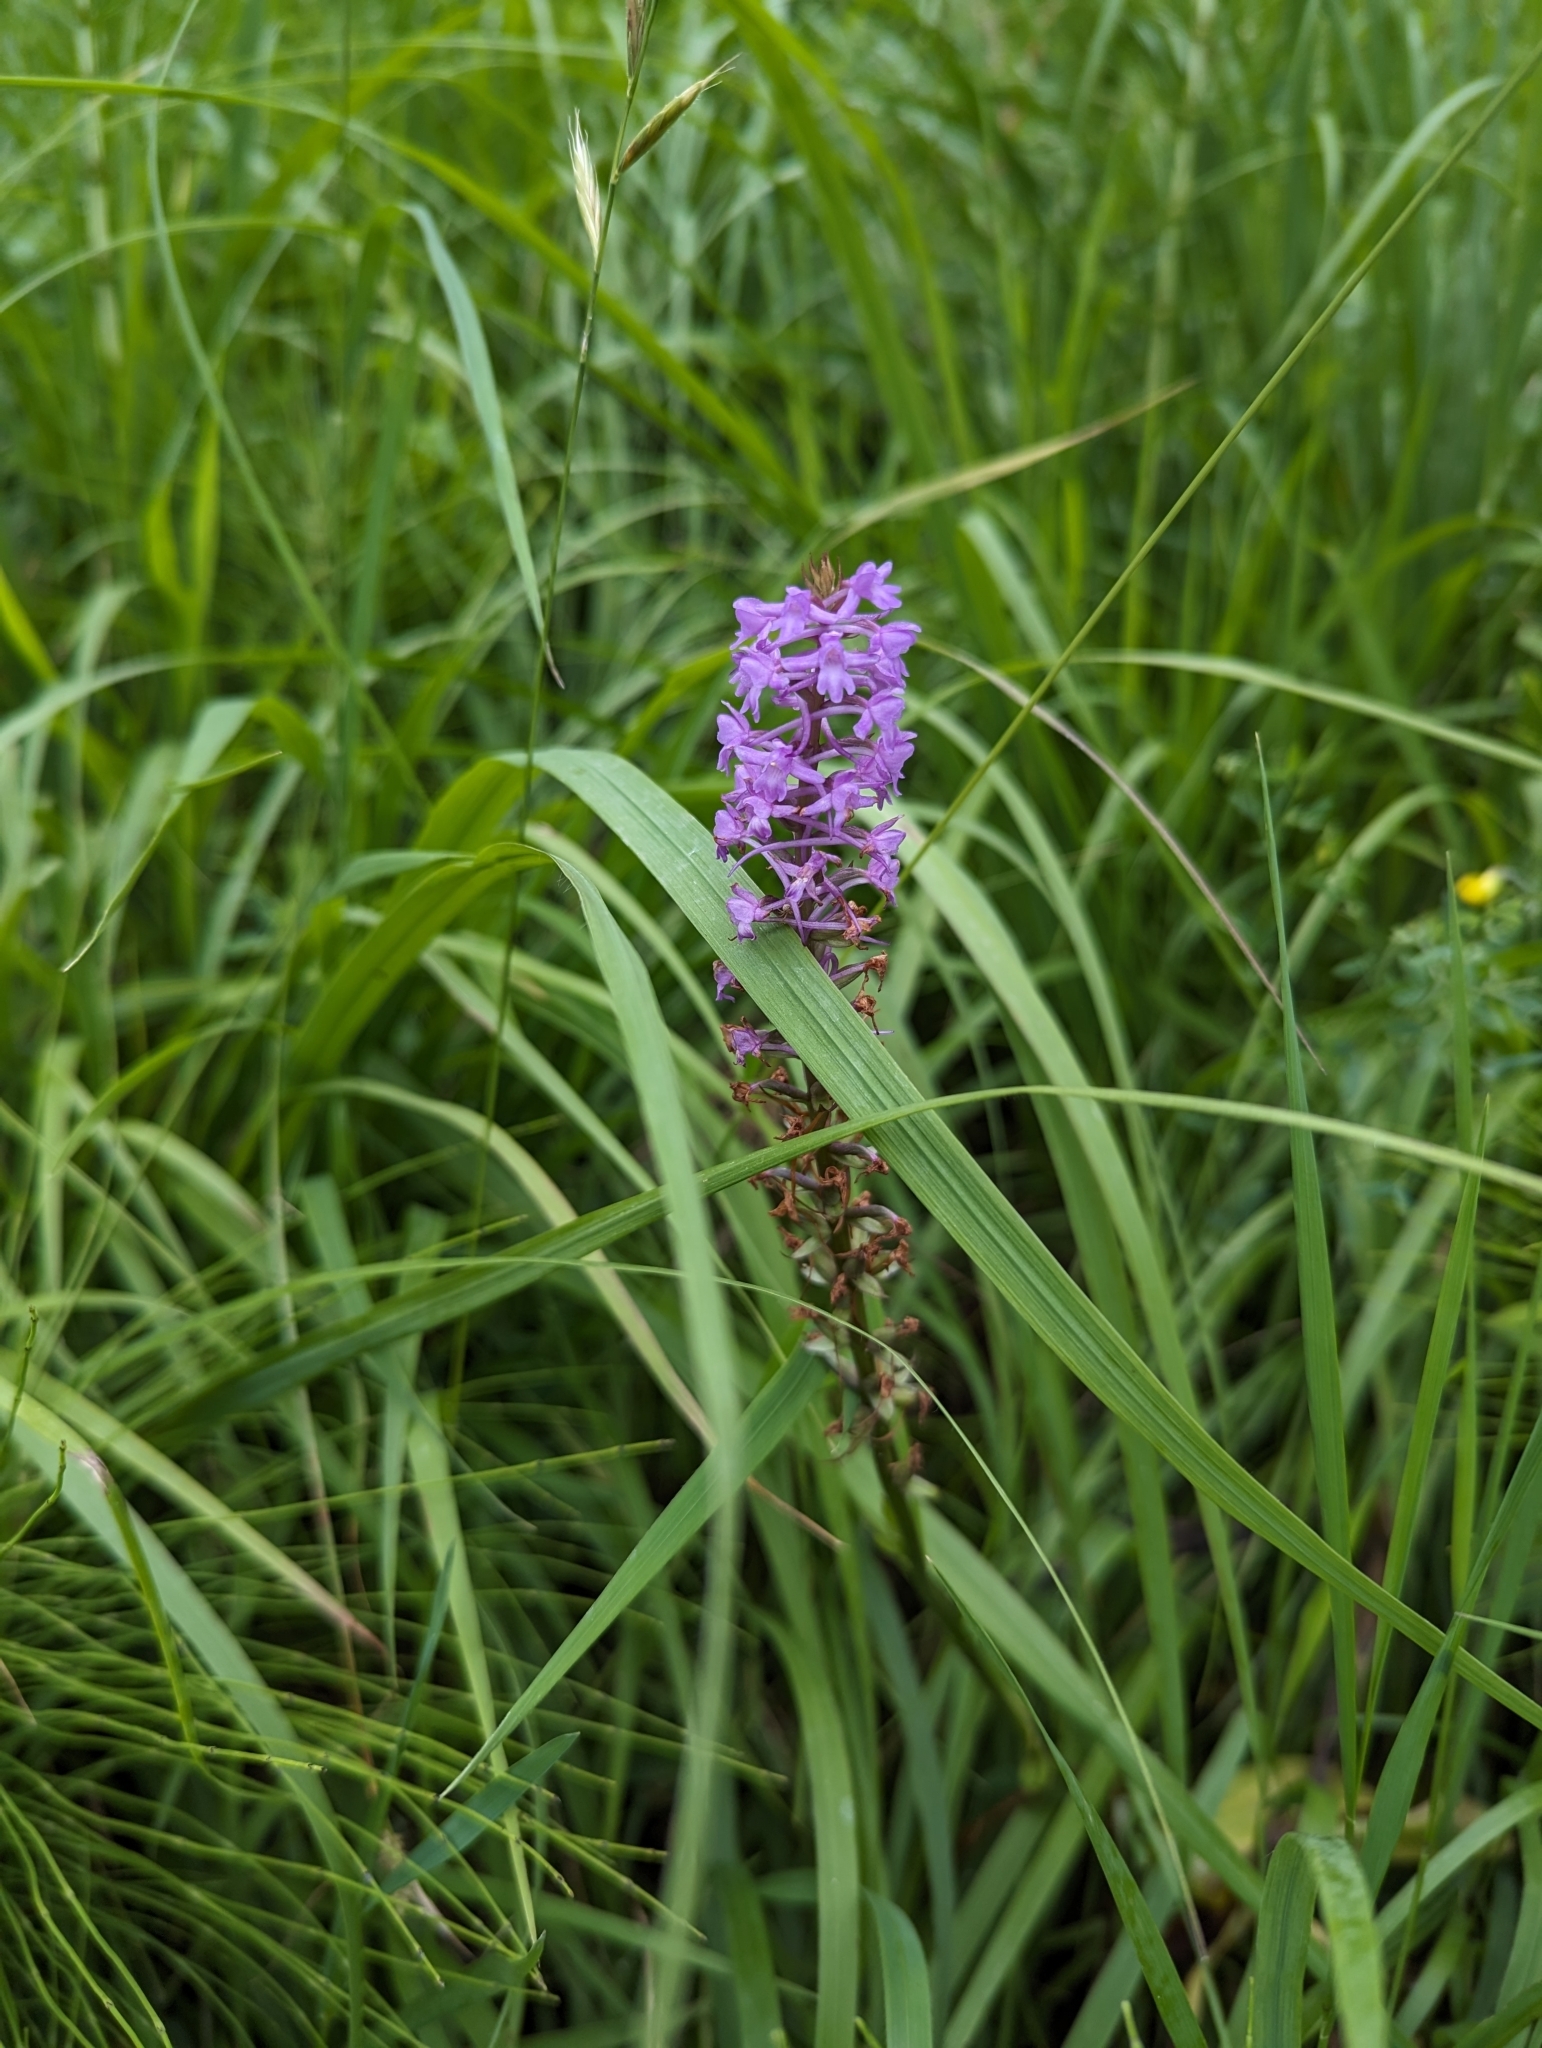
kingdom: Plantae
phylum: Tracheophyta
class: Liliopsida
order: Asparagales
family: Orchidaceae
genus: Gymnadenia
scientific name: Gymnadenia conopsea
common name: Fragrant orchid
